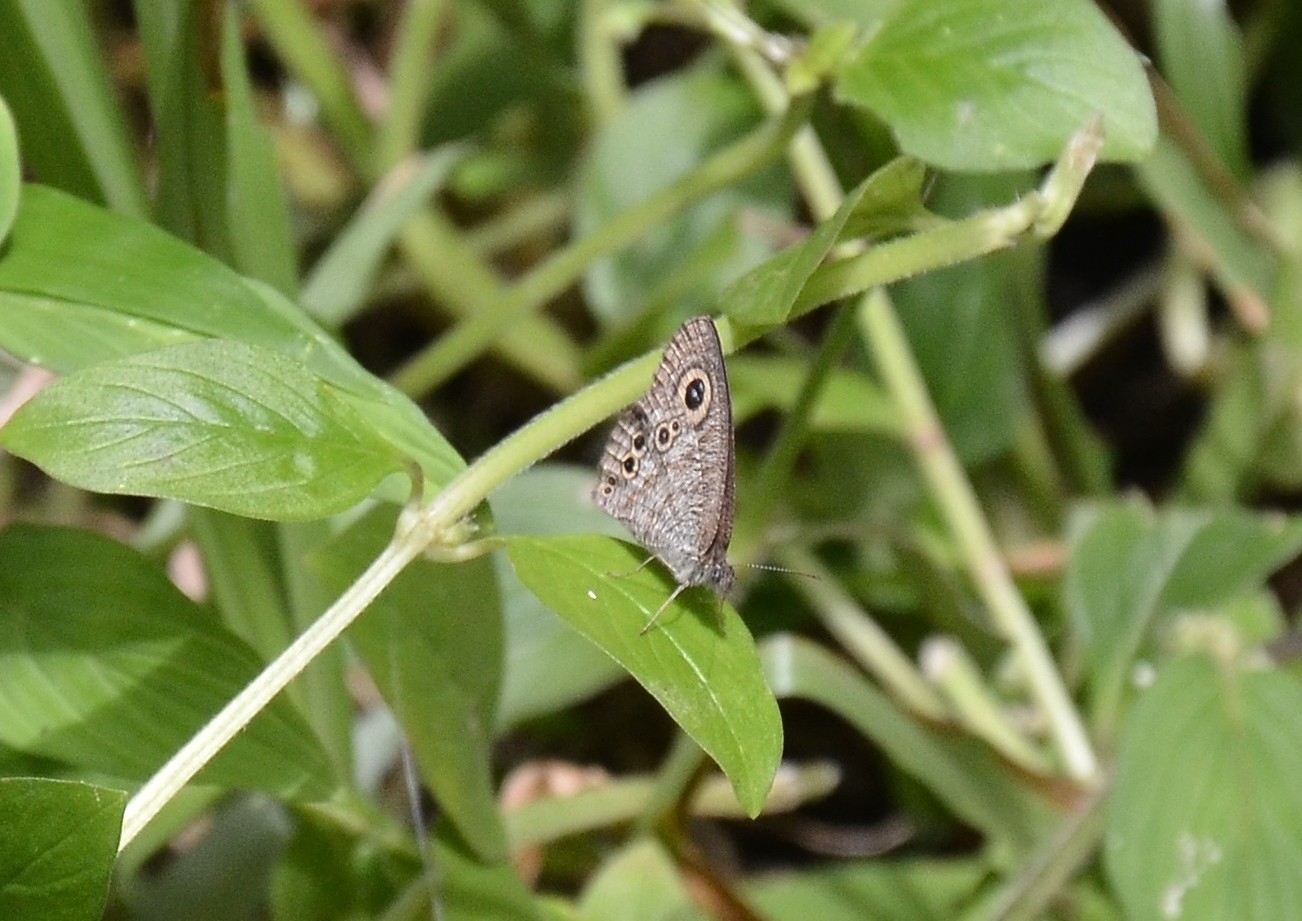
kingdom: Animalia
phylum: Arthropoda
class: Insecta
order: Lepidoptera
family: Nymphalidae
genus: Ypthima
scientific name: Ypthima baldus
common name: Common five-ring
